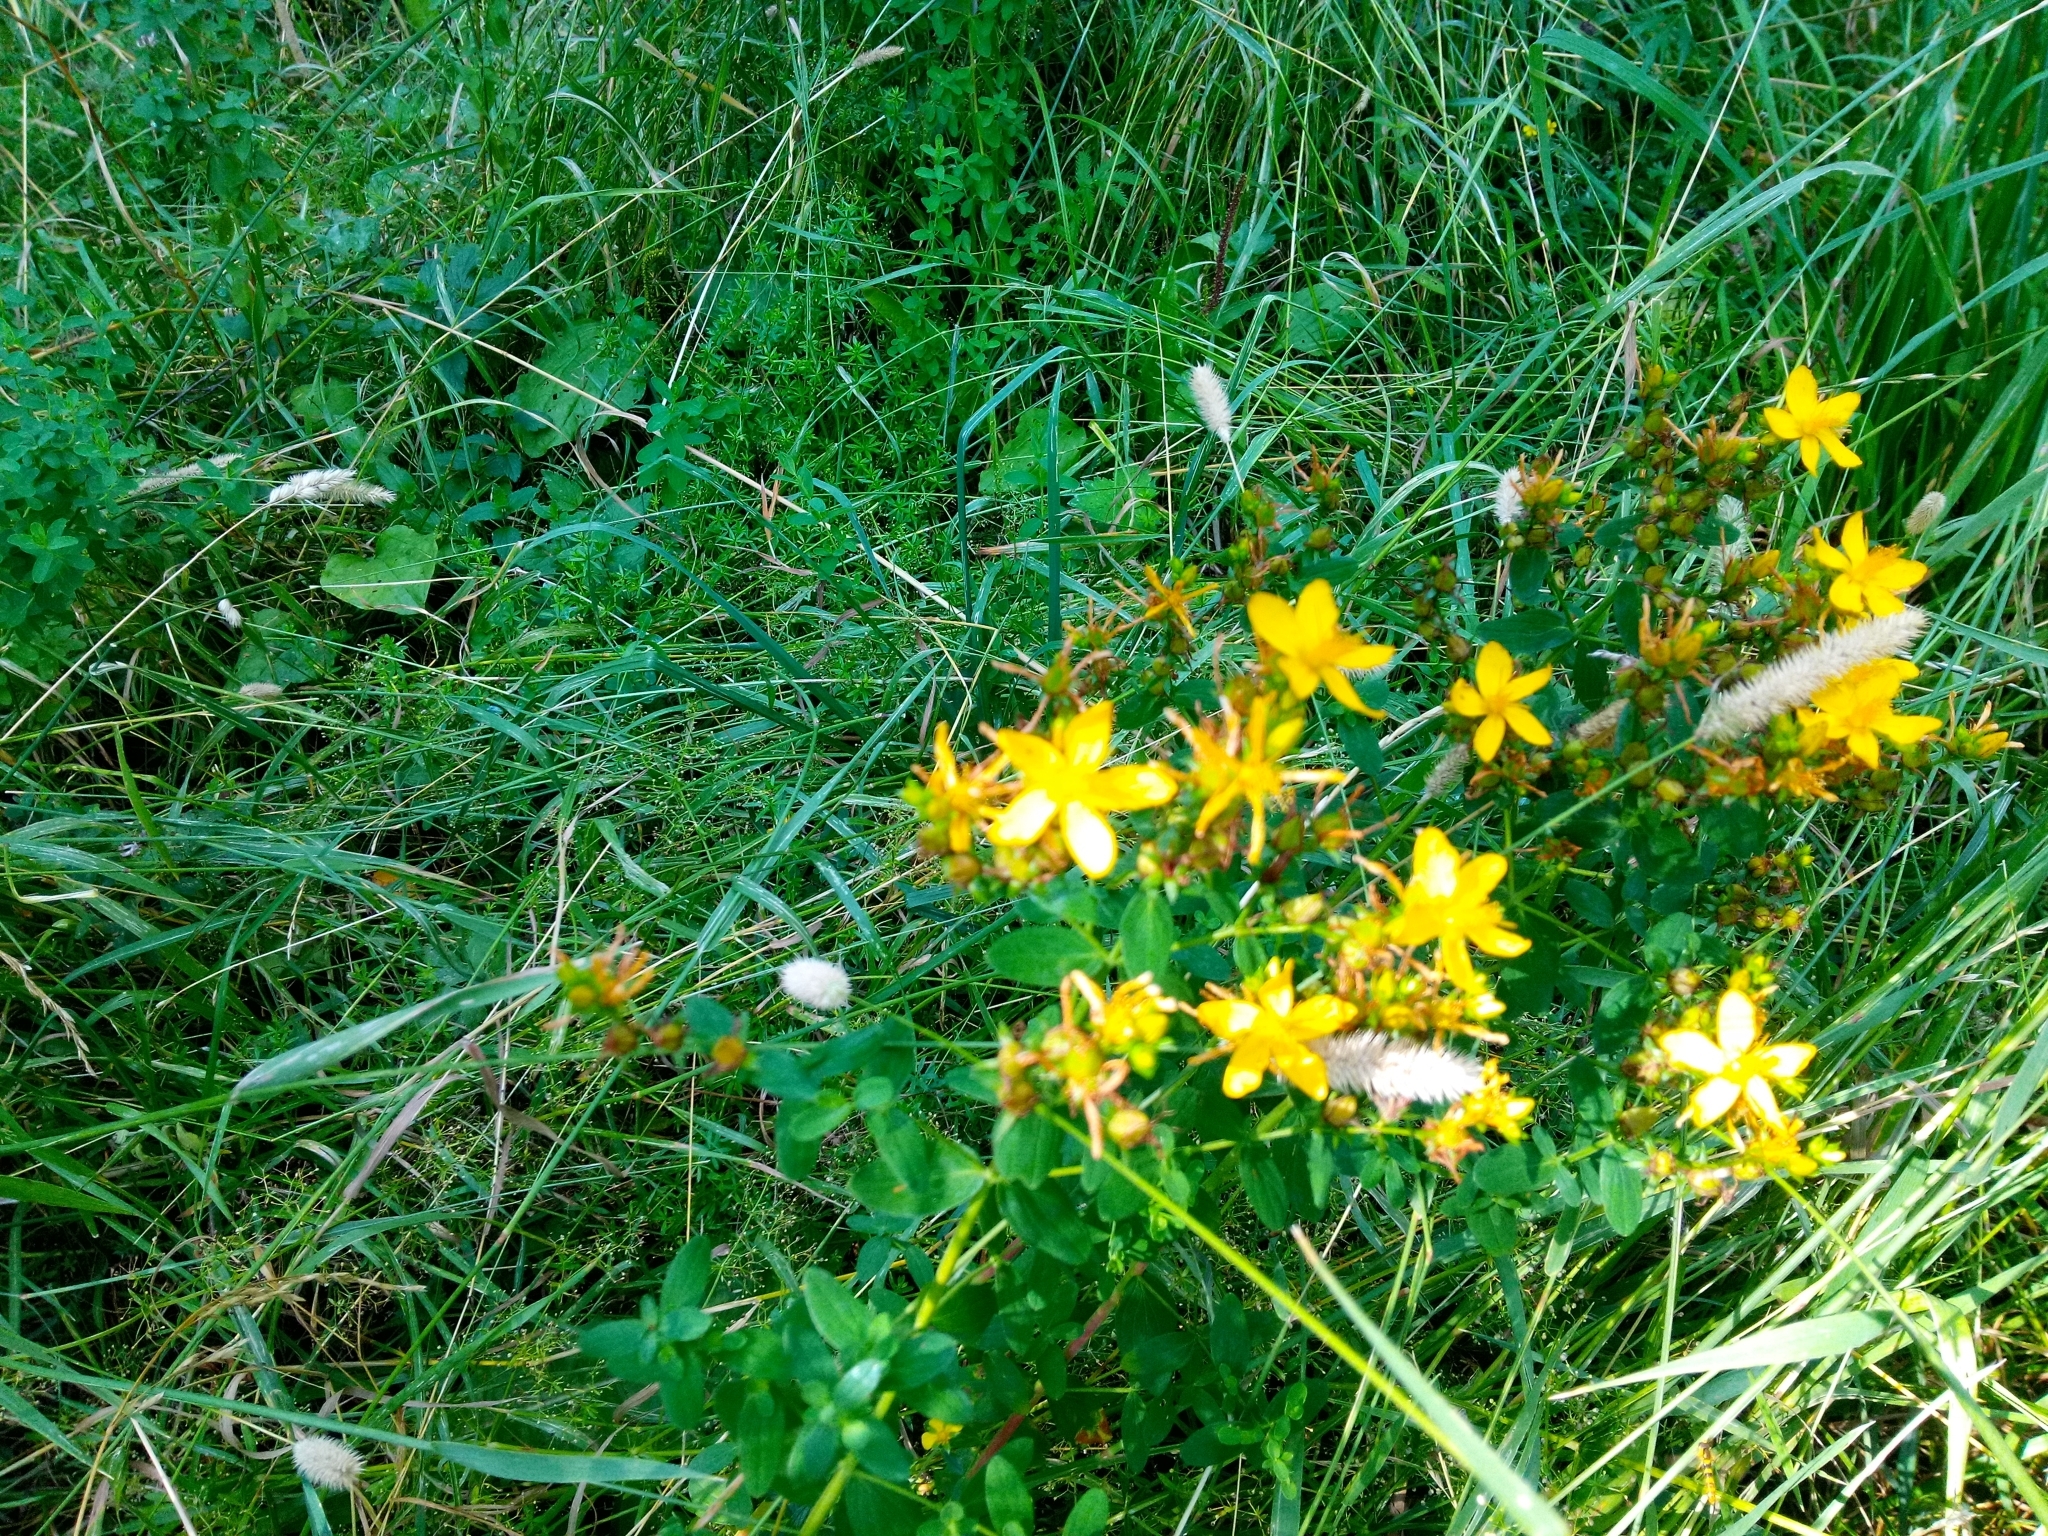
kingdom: Plantae
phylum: Tracheophyta
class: Magnoliopsida
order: Malpighiales
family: Hypericaceae
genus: Hypericum
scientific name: Hypericum perforatum
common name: Common st. johnswort
